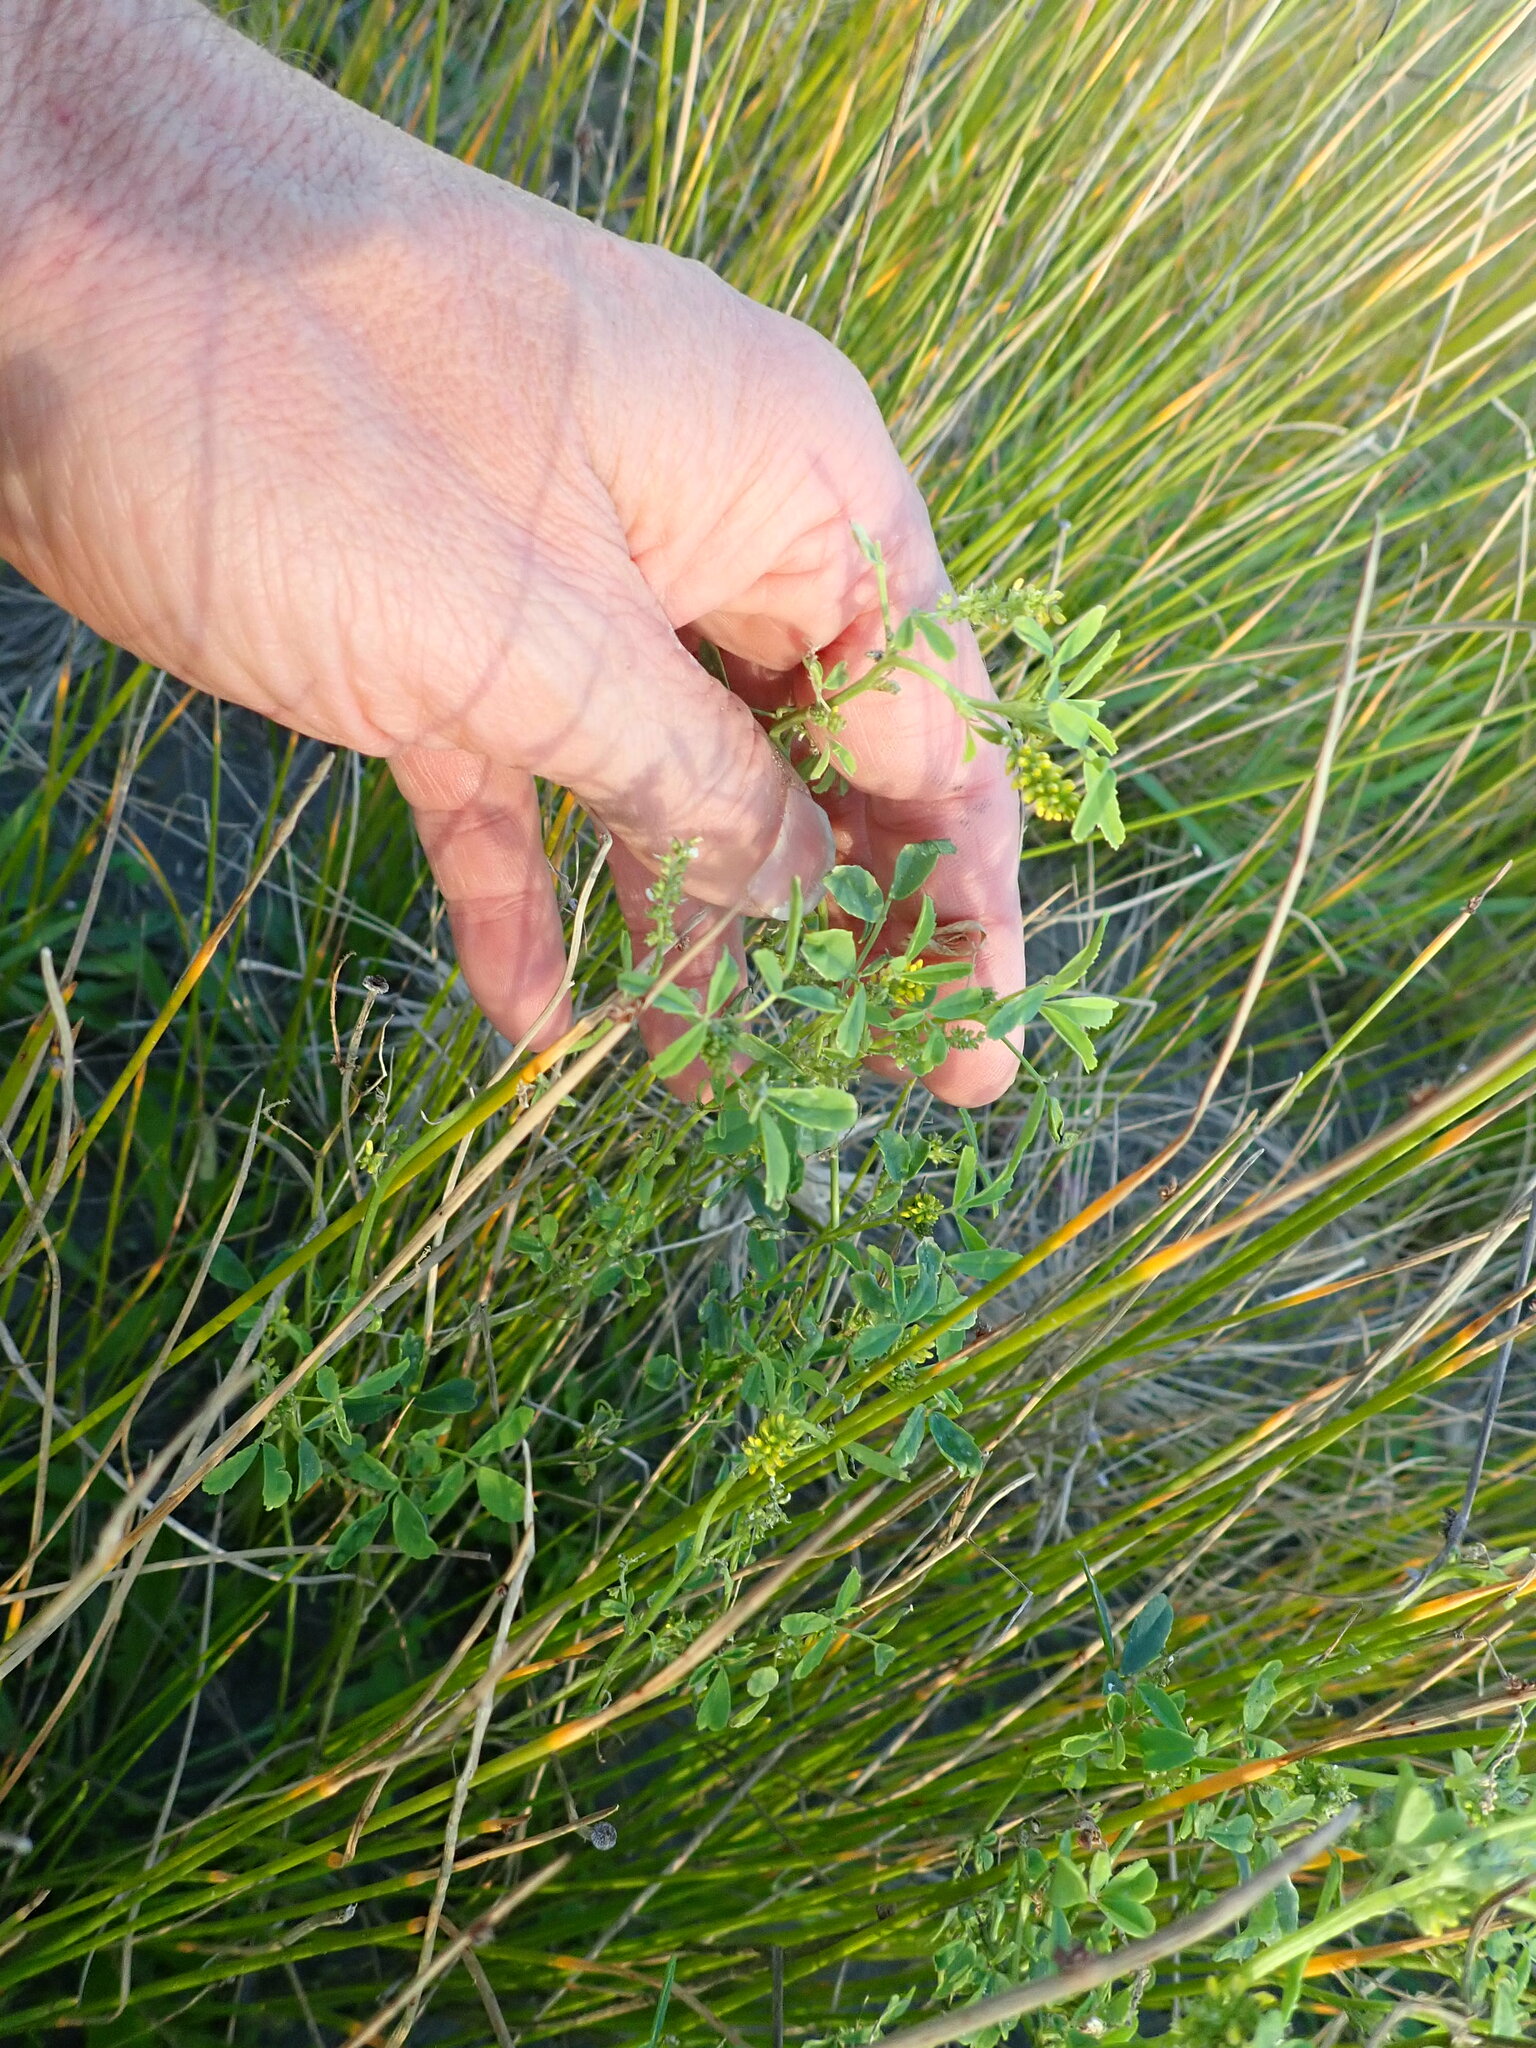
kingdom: Plantae
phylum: Tracheophyta
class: Magnoliopsida
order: Fabales
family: Fabaceae
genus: Melilotus
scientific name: Melilotus indicus
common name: Small melilot
